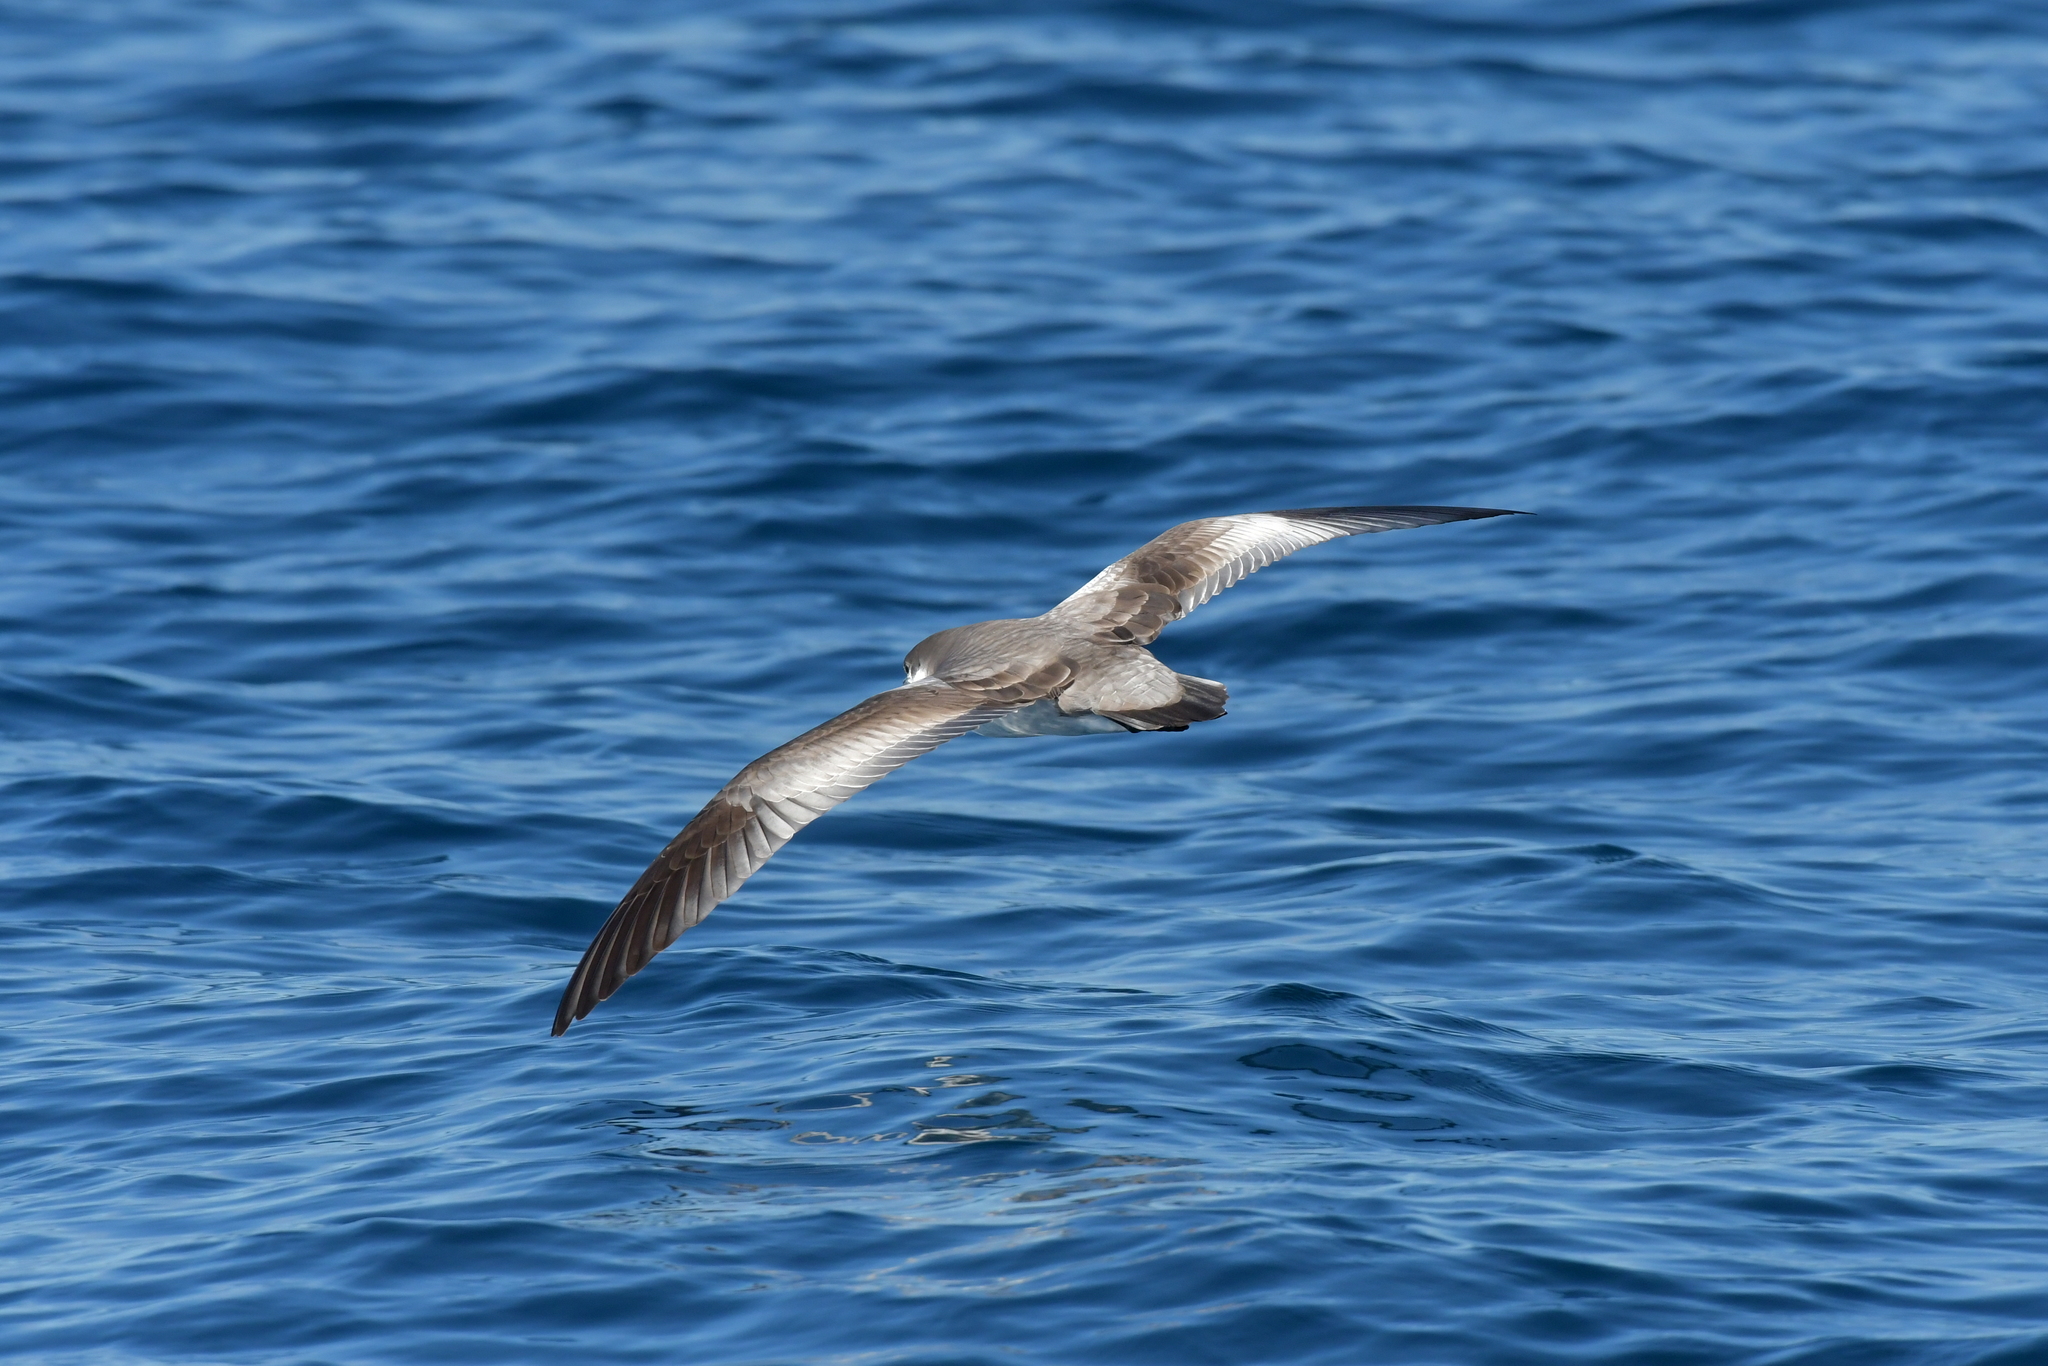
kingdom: Animalia
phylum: Chordata
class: Aves
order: Procellariiformes
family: Procellariidae
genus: Puffinus
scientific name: Puffinus bulleri
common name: Buller's shearwater
